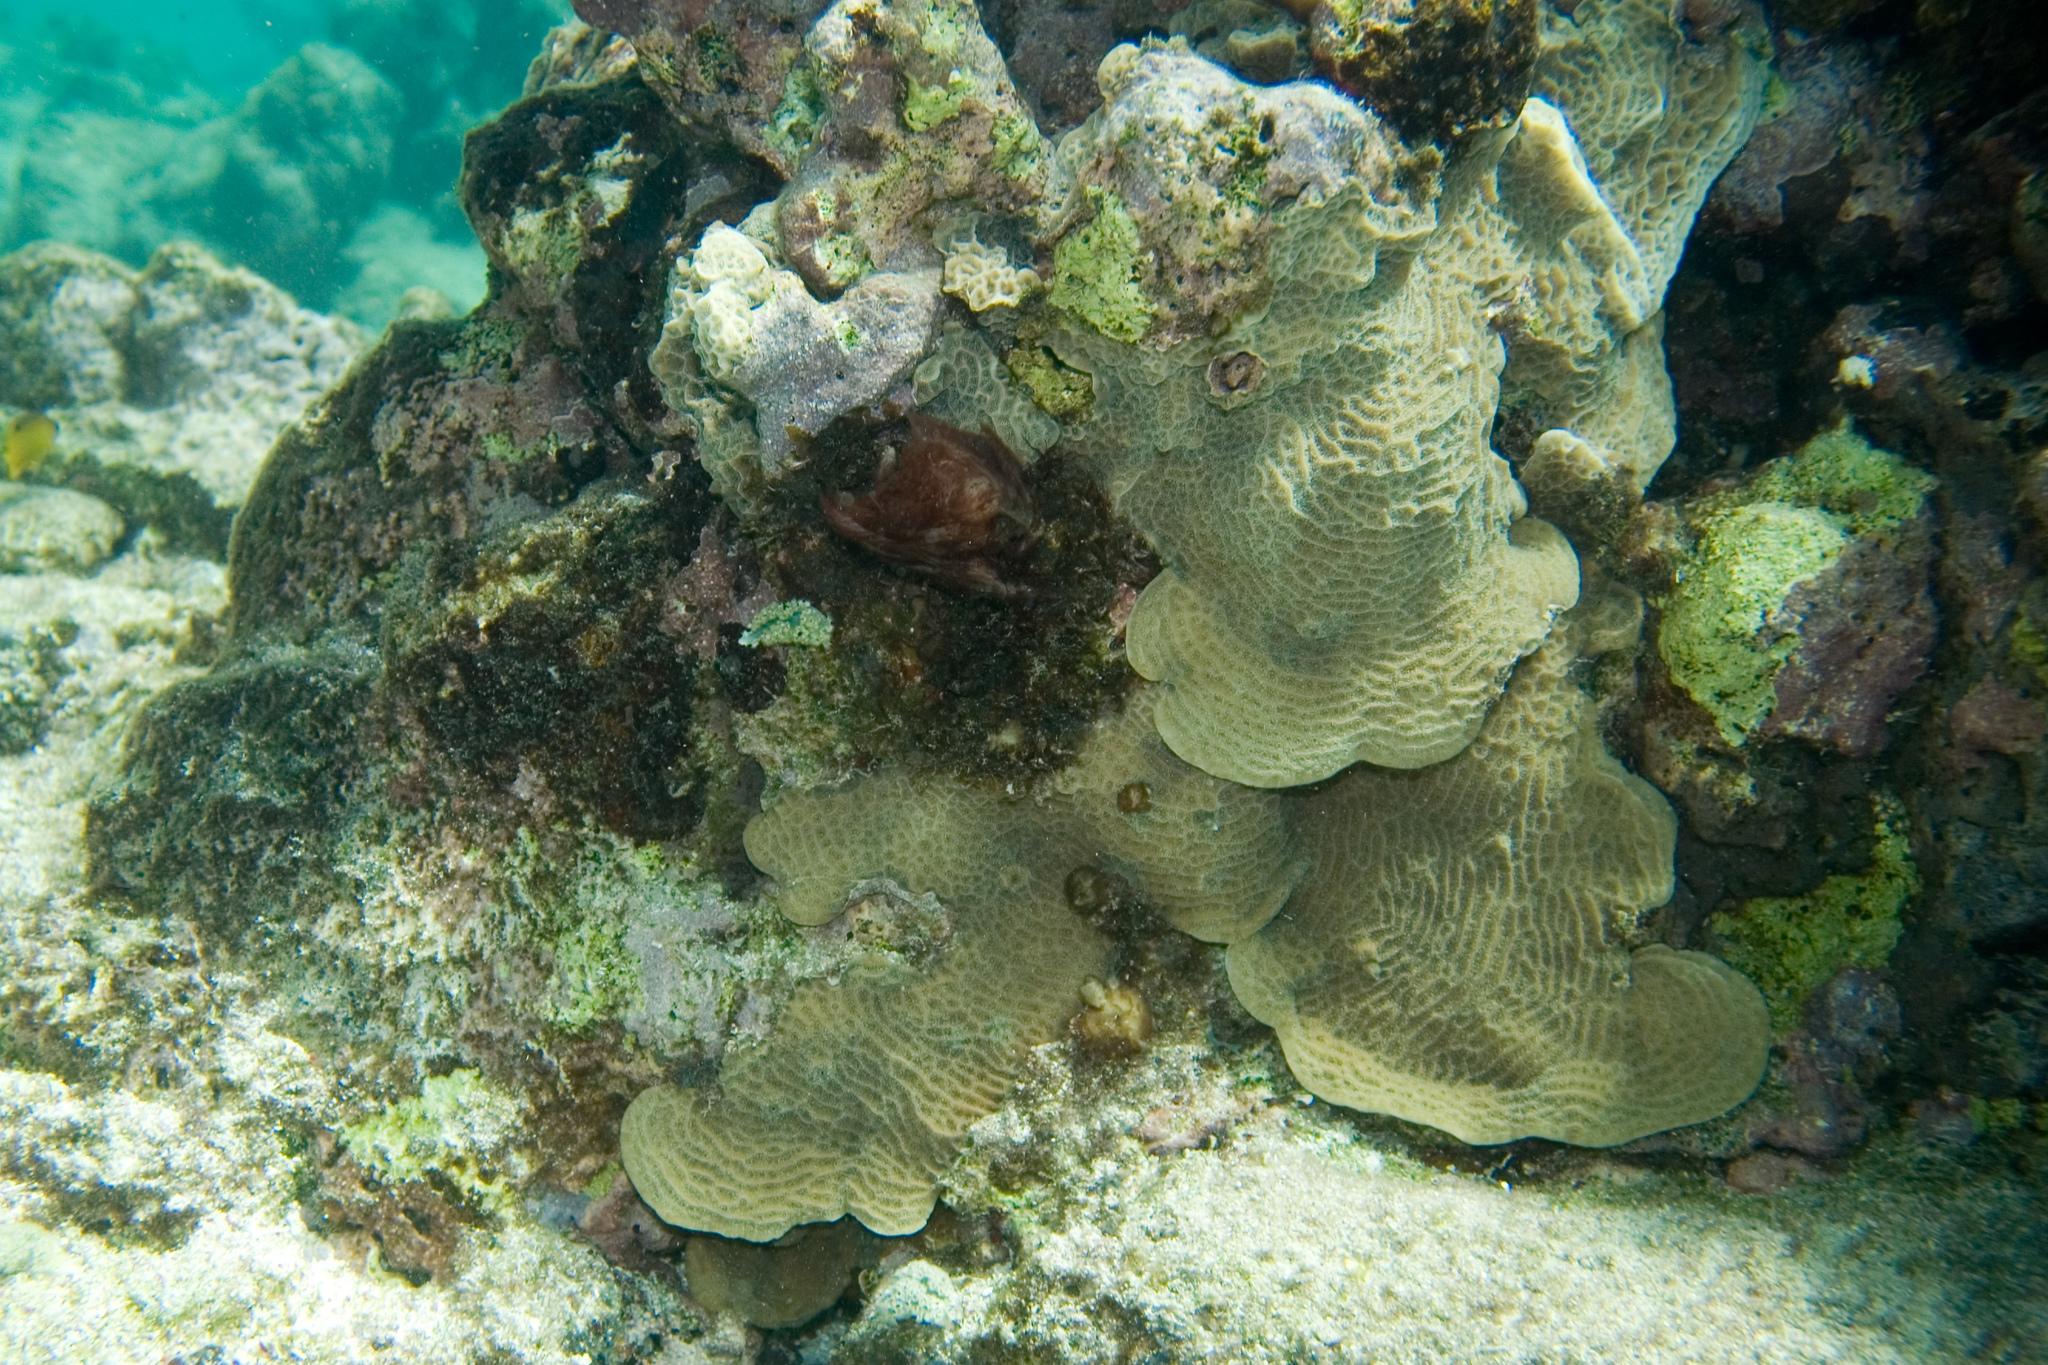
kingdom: Animalia
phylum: Cnidaria
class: Anthozoa
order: Scleractinia
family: Agariciidae
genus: Agaricia
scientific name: Agaricia agaricites
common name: Lettuce coral
